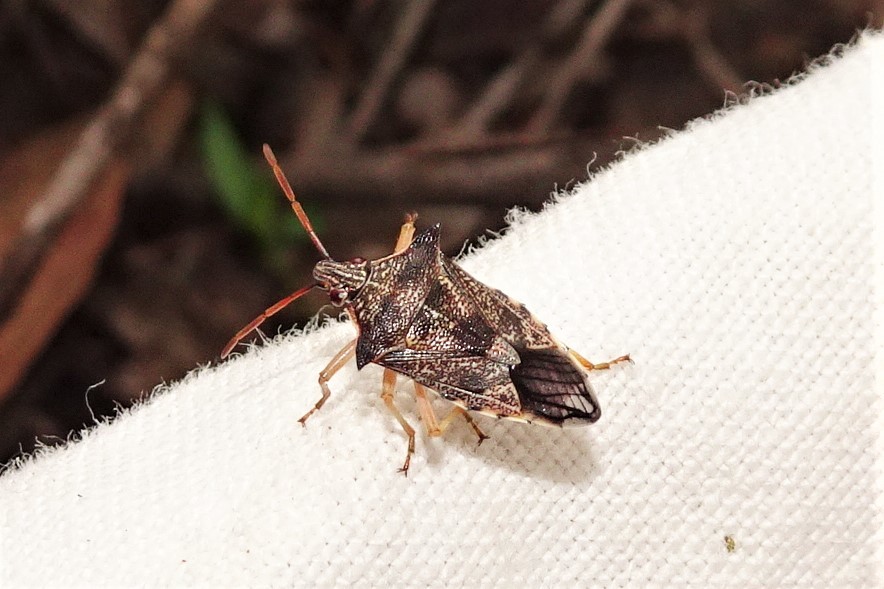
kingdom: Animalia
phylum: Arthropoda
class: Insecta
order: Hemiptera
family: Pentatomidae
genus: Oechalia
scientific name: Oechalia schellenbergii
